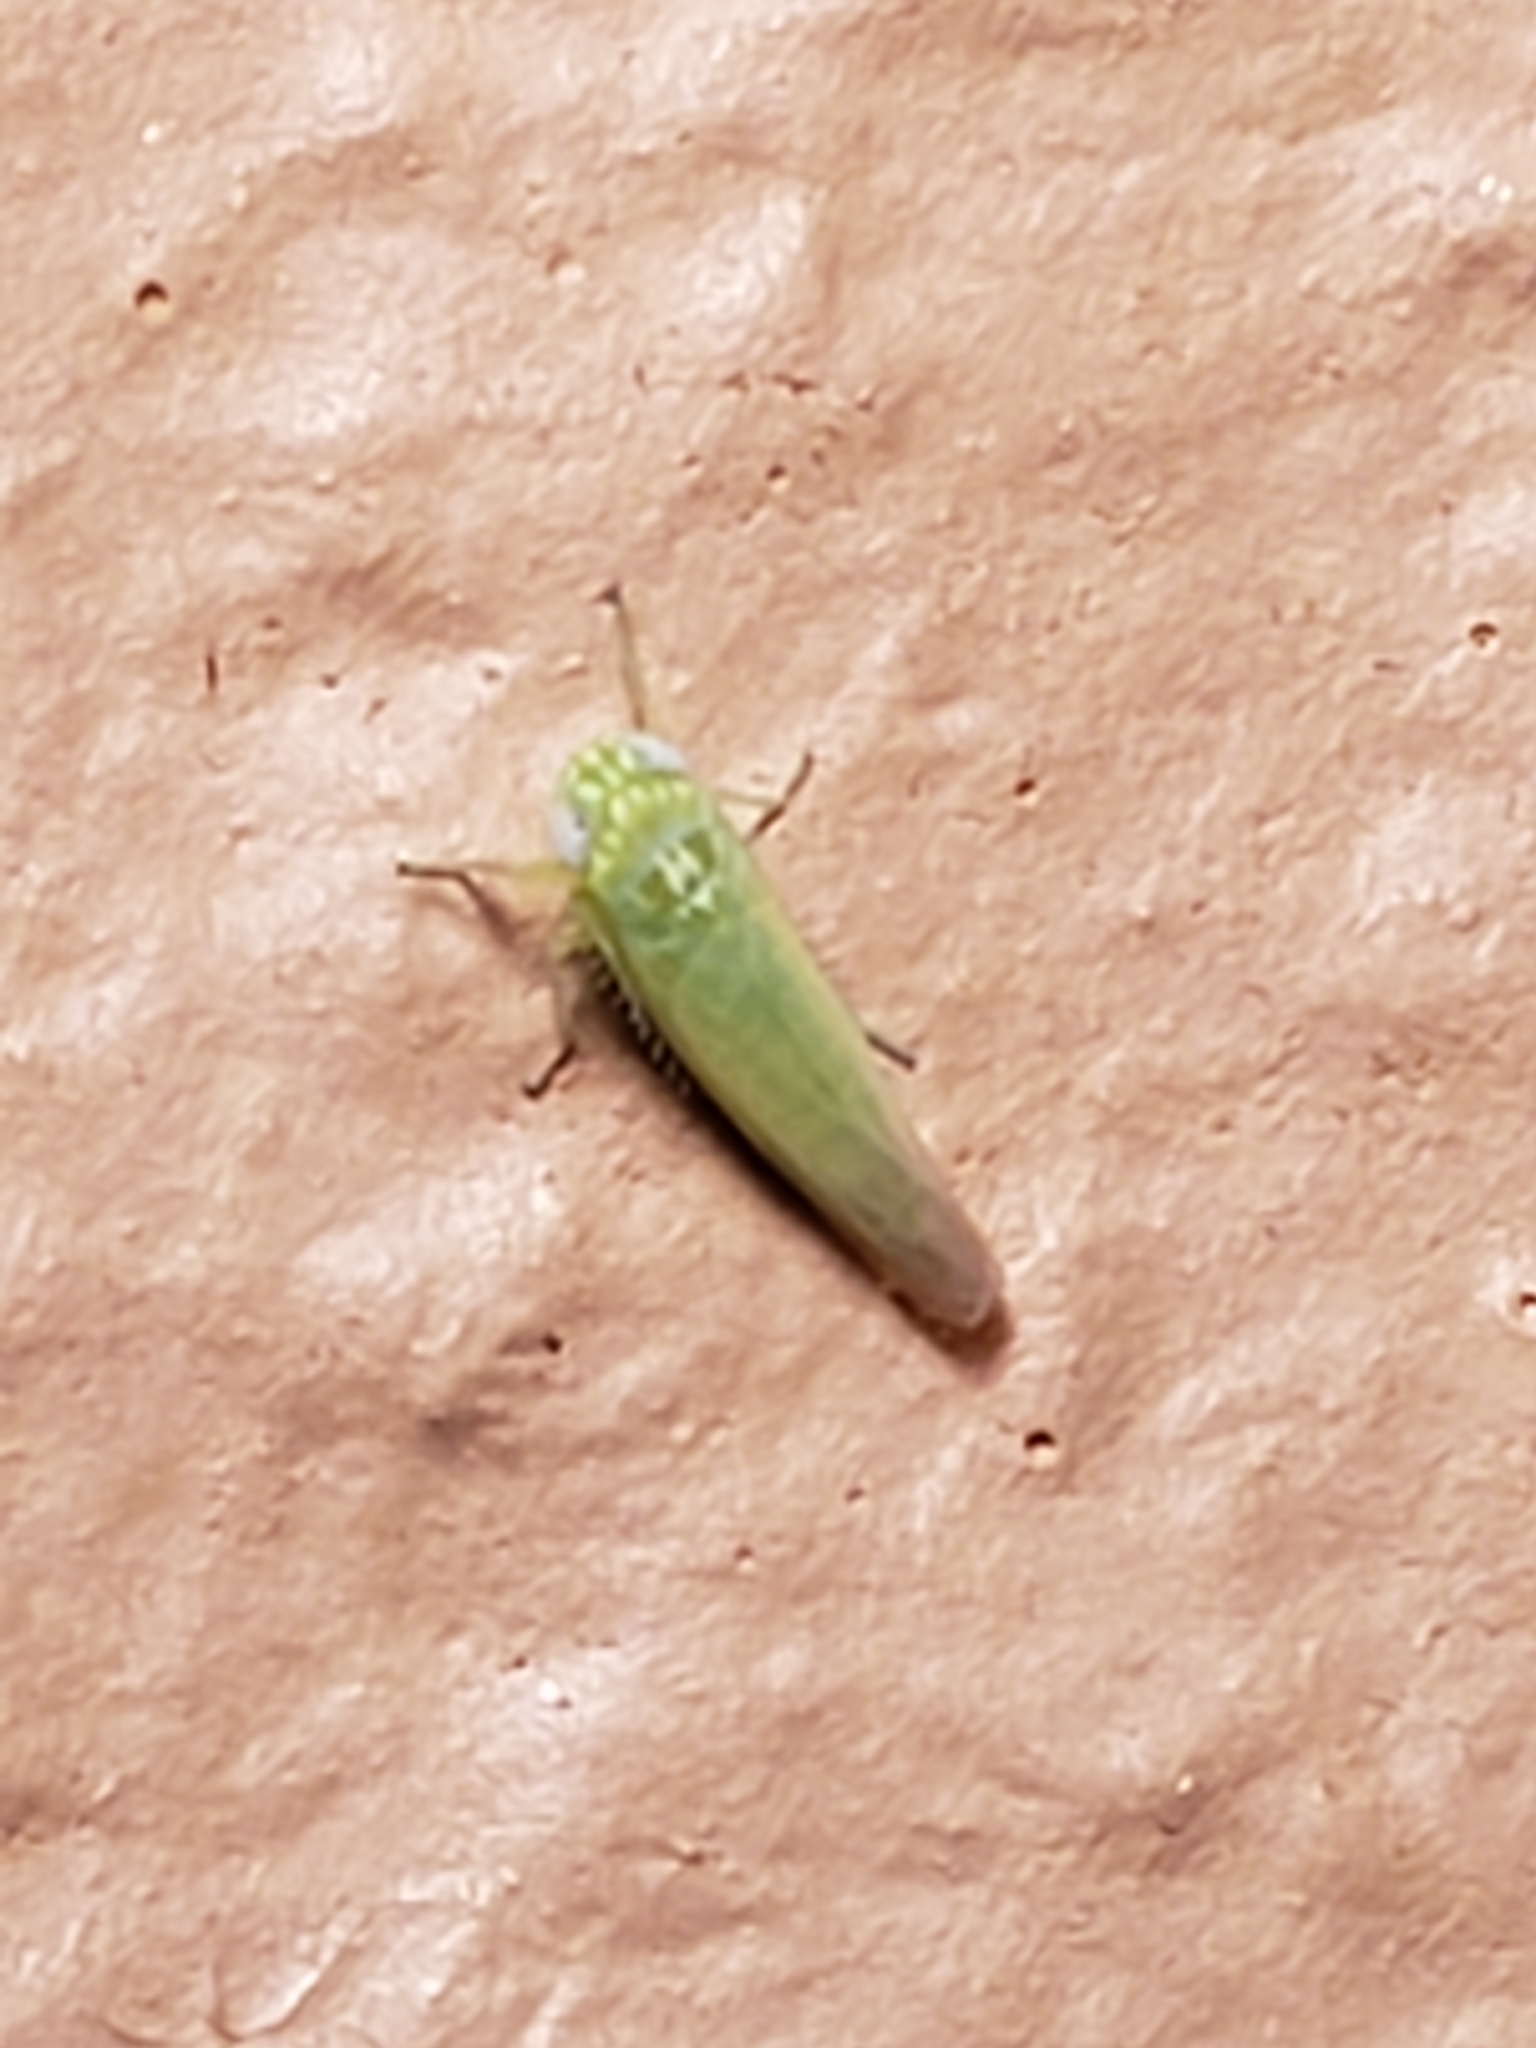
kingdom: Animalia
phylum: Arthropoda
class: Insecta
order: Hemiptera
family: Cicadellidae
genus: Empoasca
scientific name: Empoasca fabae
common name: Potato leafhopper
